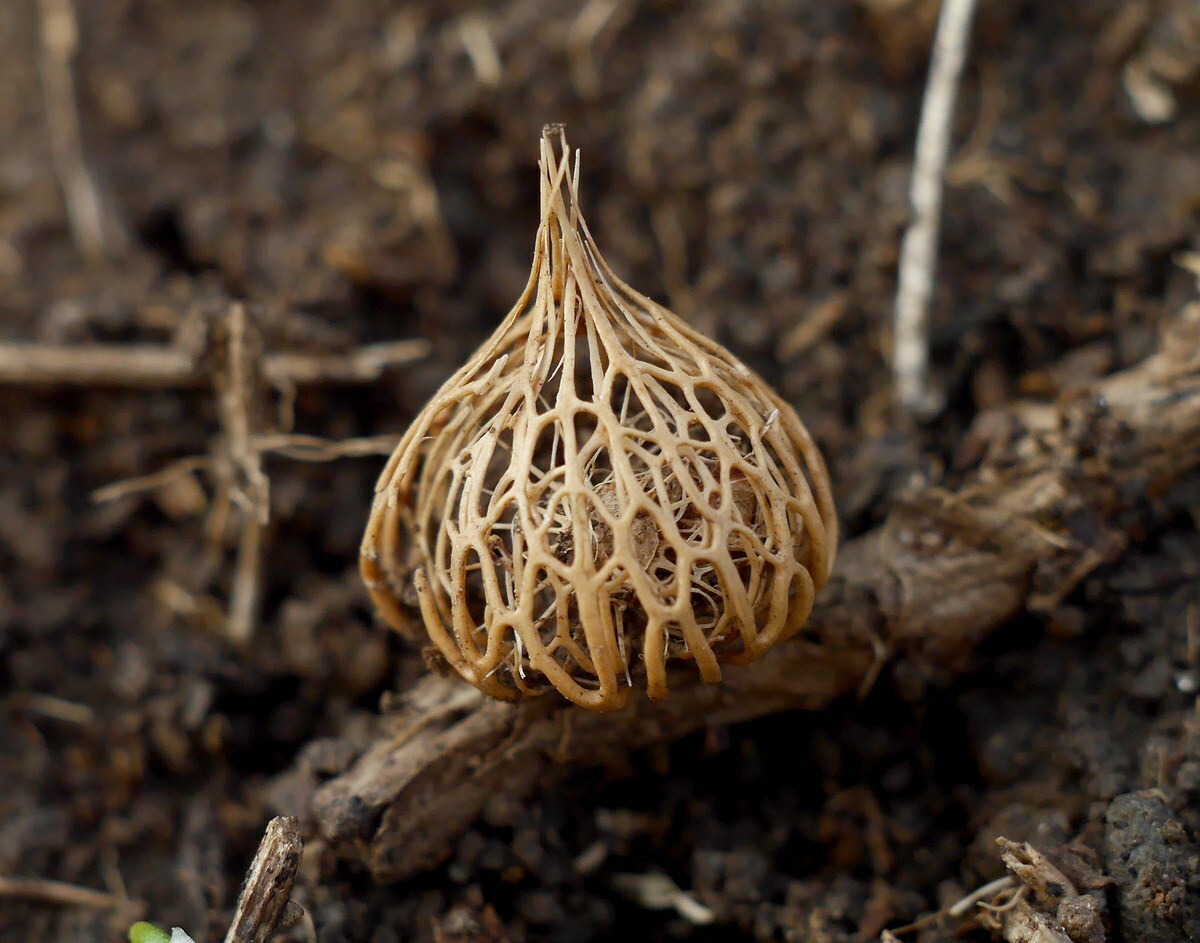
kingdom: Plantae
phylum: Tracheophyta
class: Liliopsida
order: Asparagales
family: Iridaceae
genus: Crocus
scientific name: Crocus reticulatus
